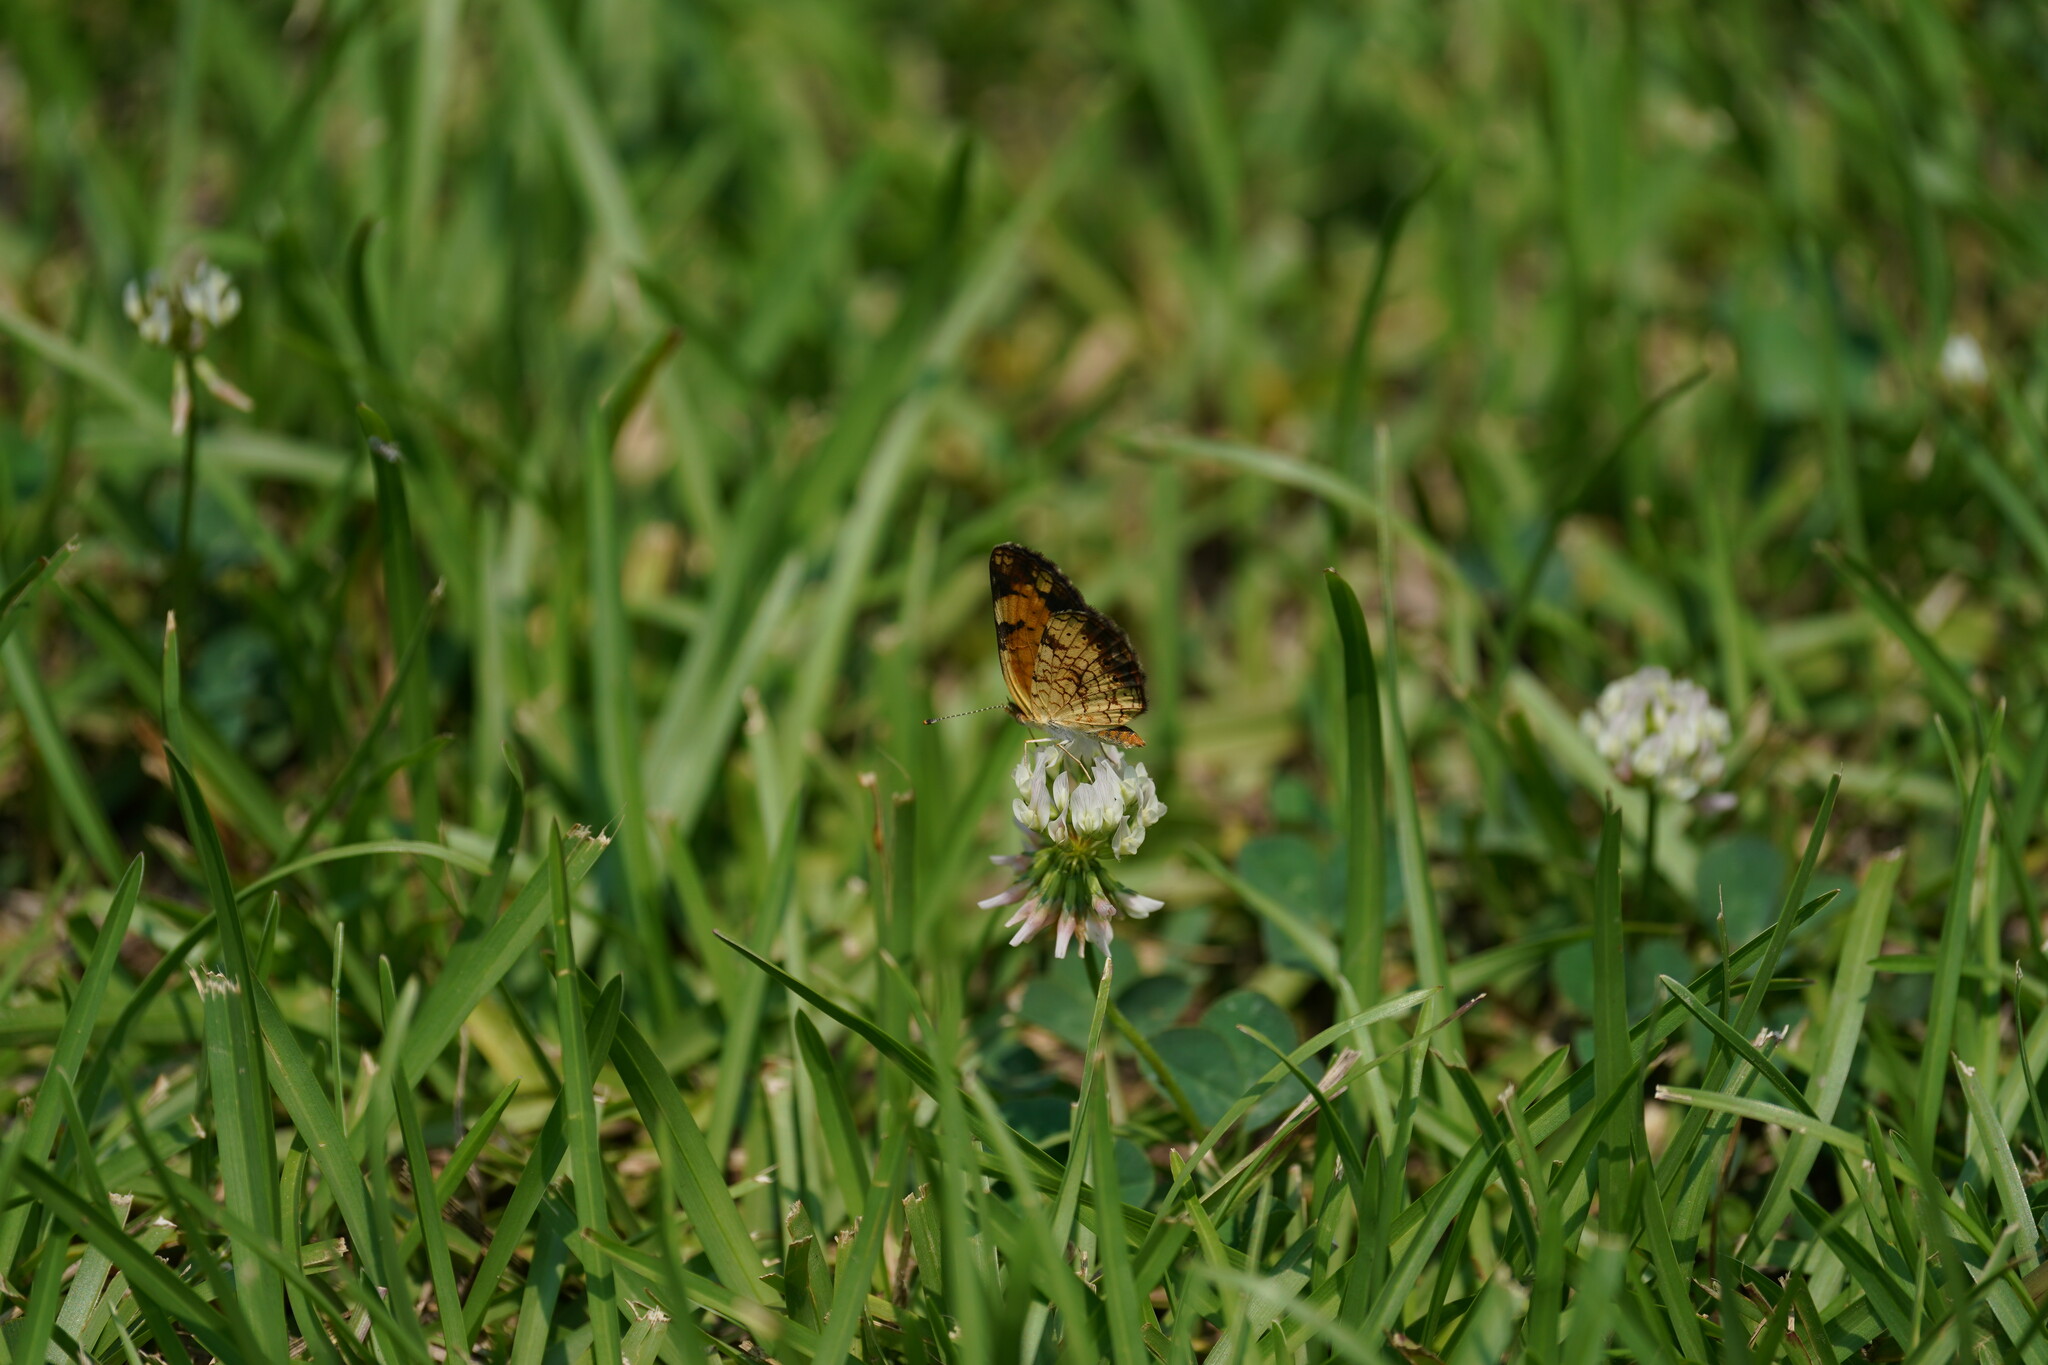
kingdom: Animalia
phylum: Arthropoda
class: Insecta
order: Lepidoptera
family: Nymphalidae
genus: Phyciodes
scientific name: Phyciodes tharos
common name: Pearl crescent
